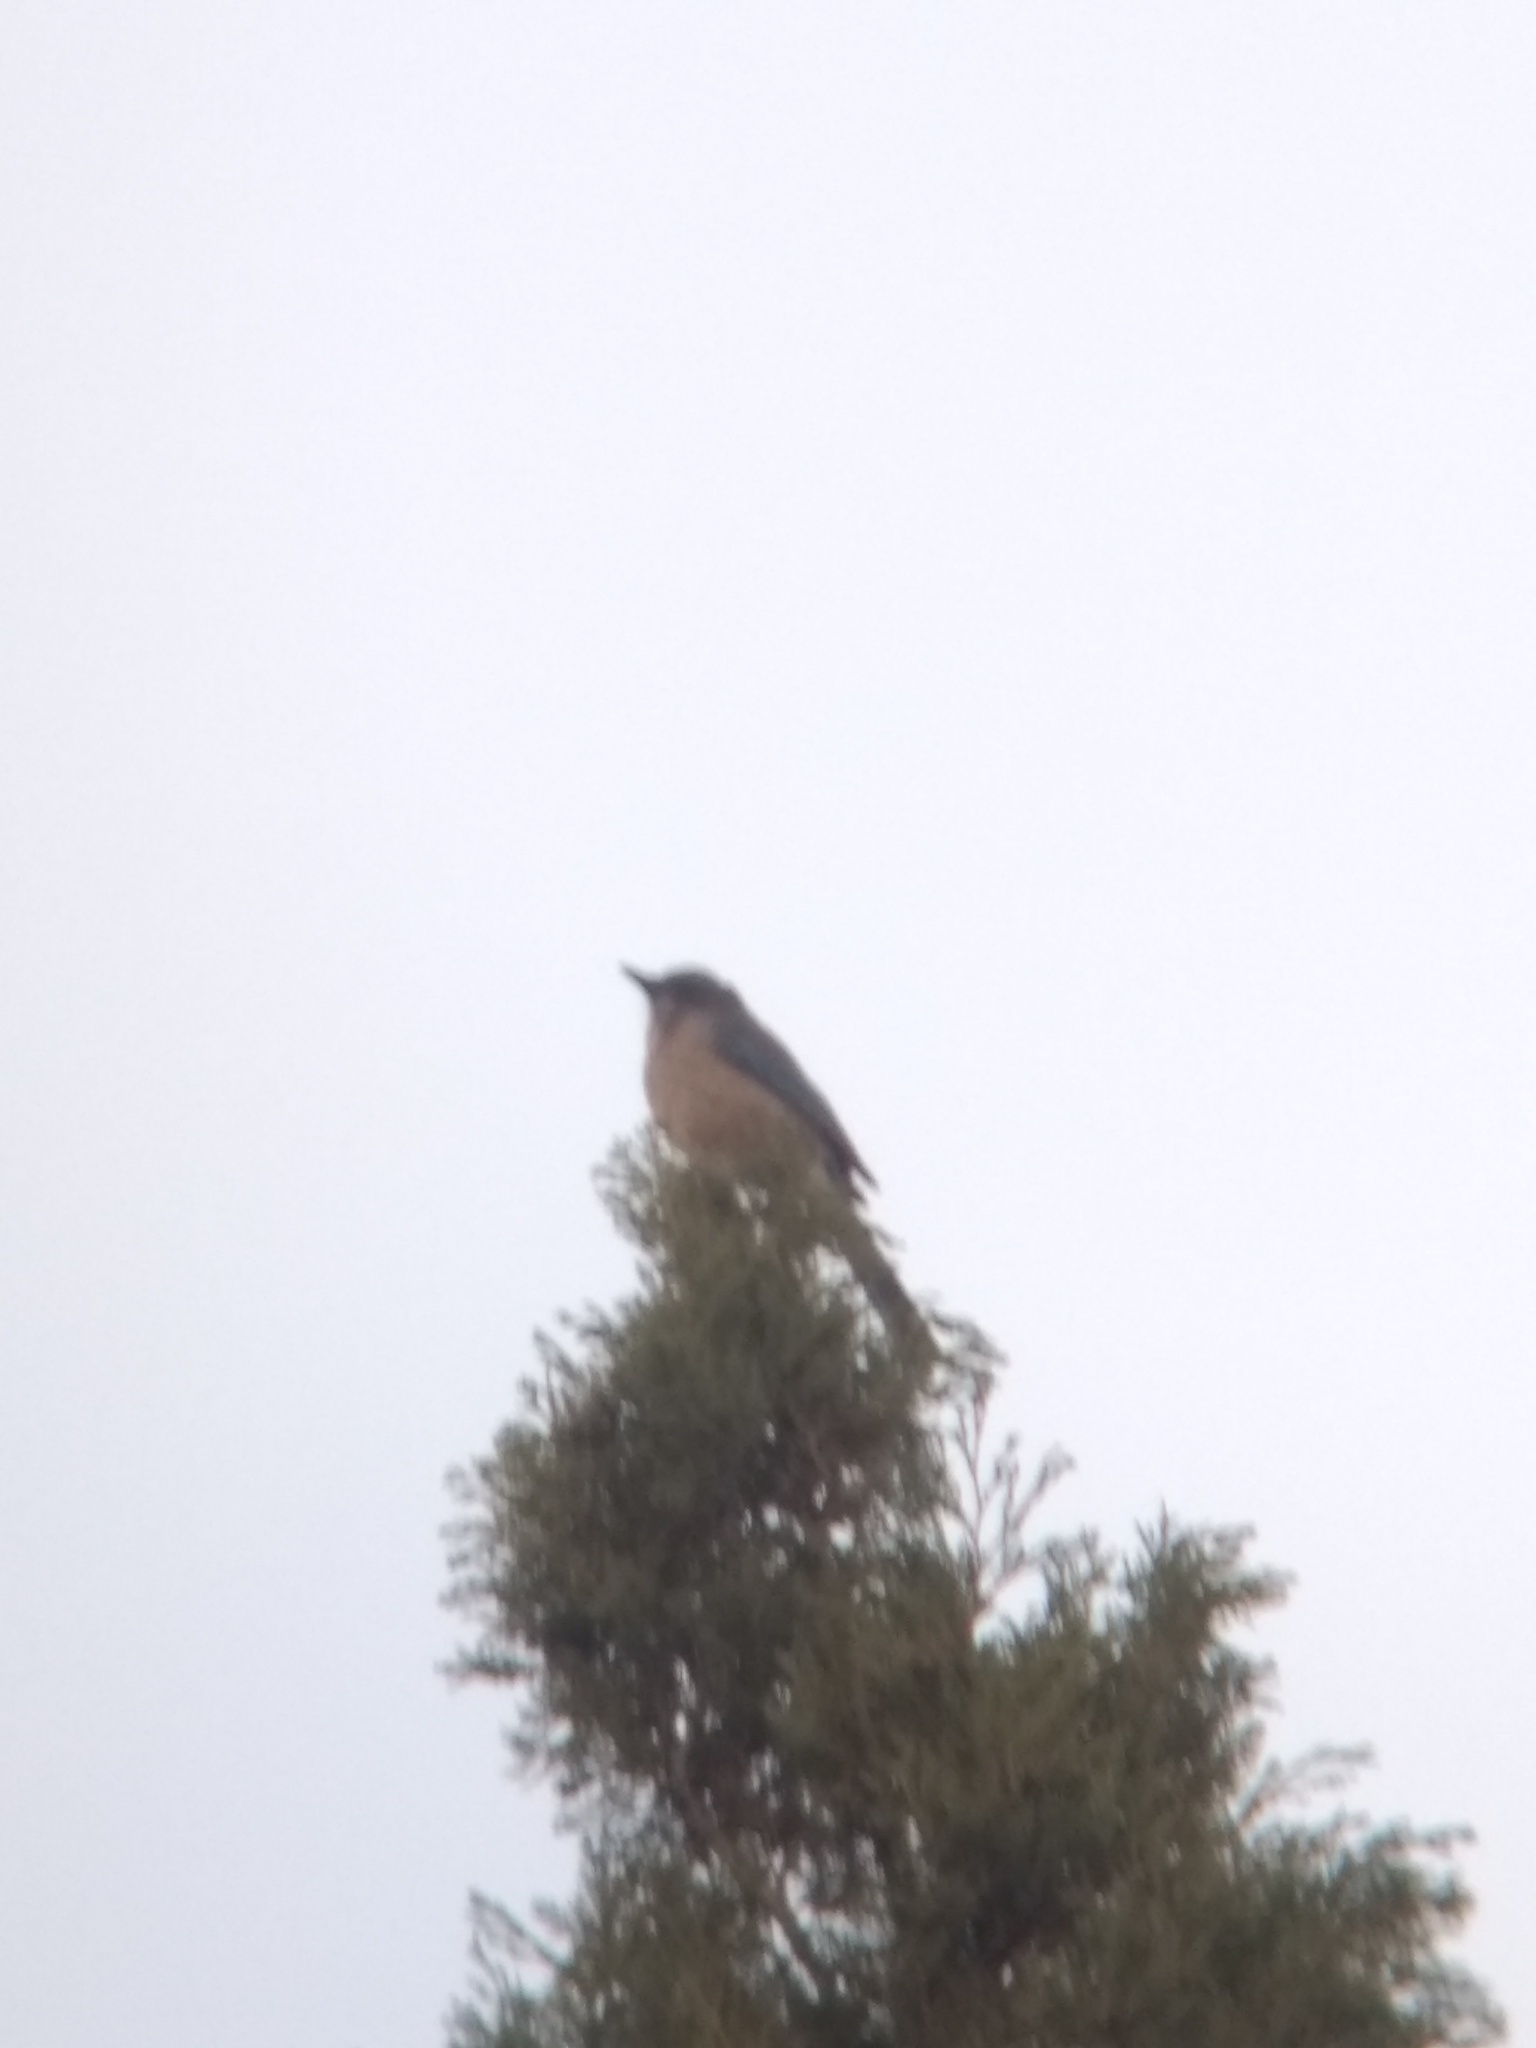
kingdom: Animalia
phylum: Chordata
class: Aves
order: Passeriformes
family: Corvidae
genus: Aphelocoma
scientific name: Aphelocoma californica
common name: California scrub-jay
